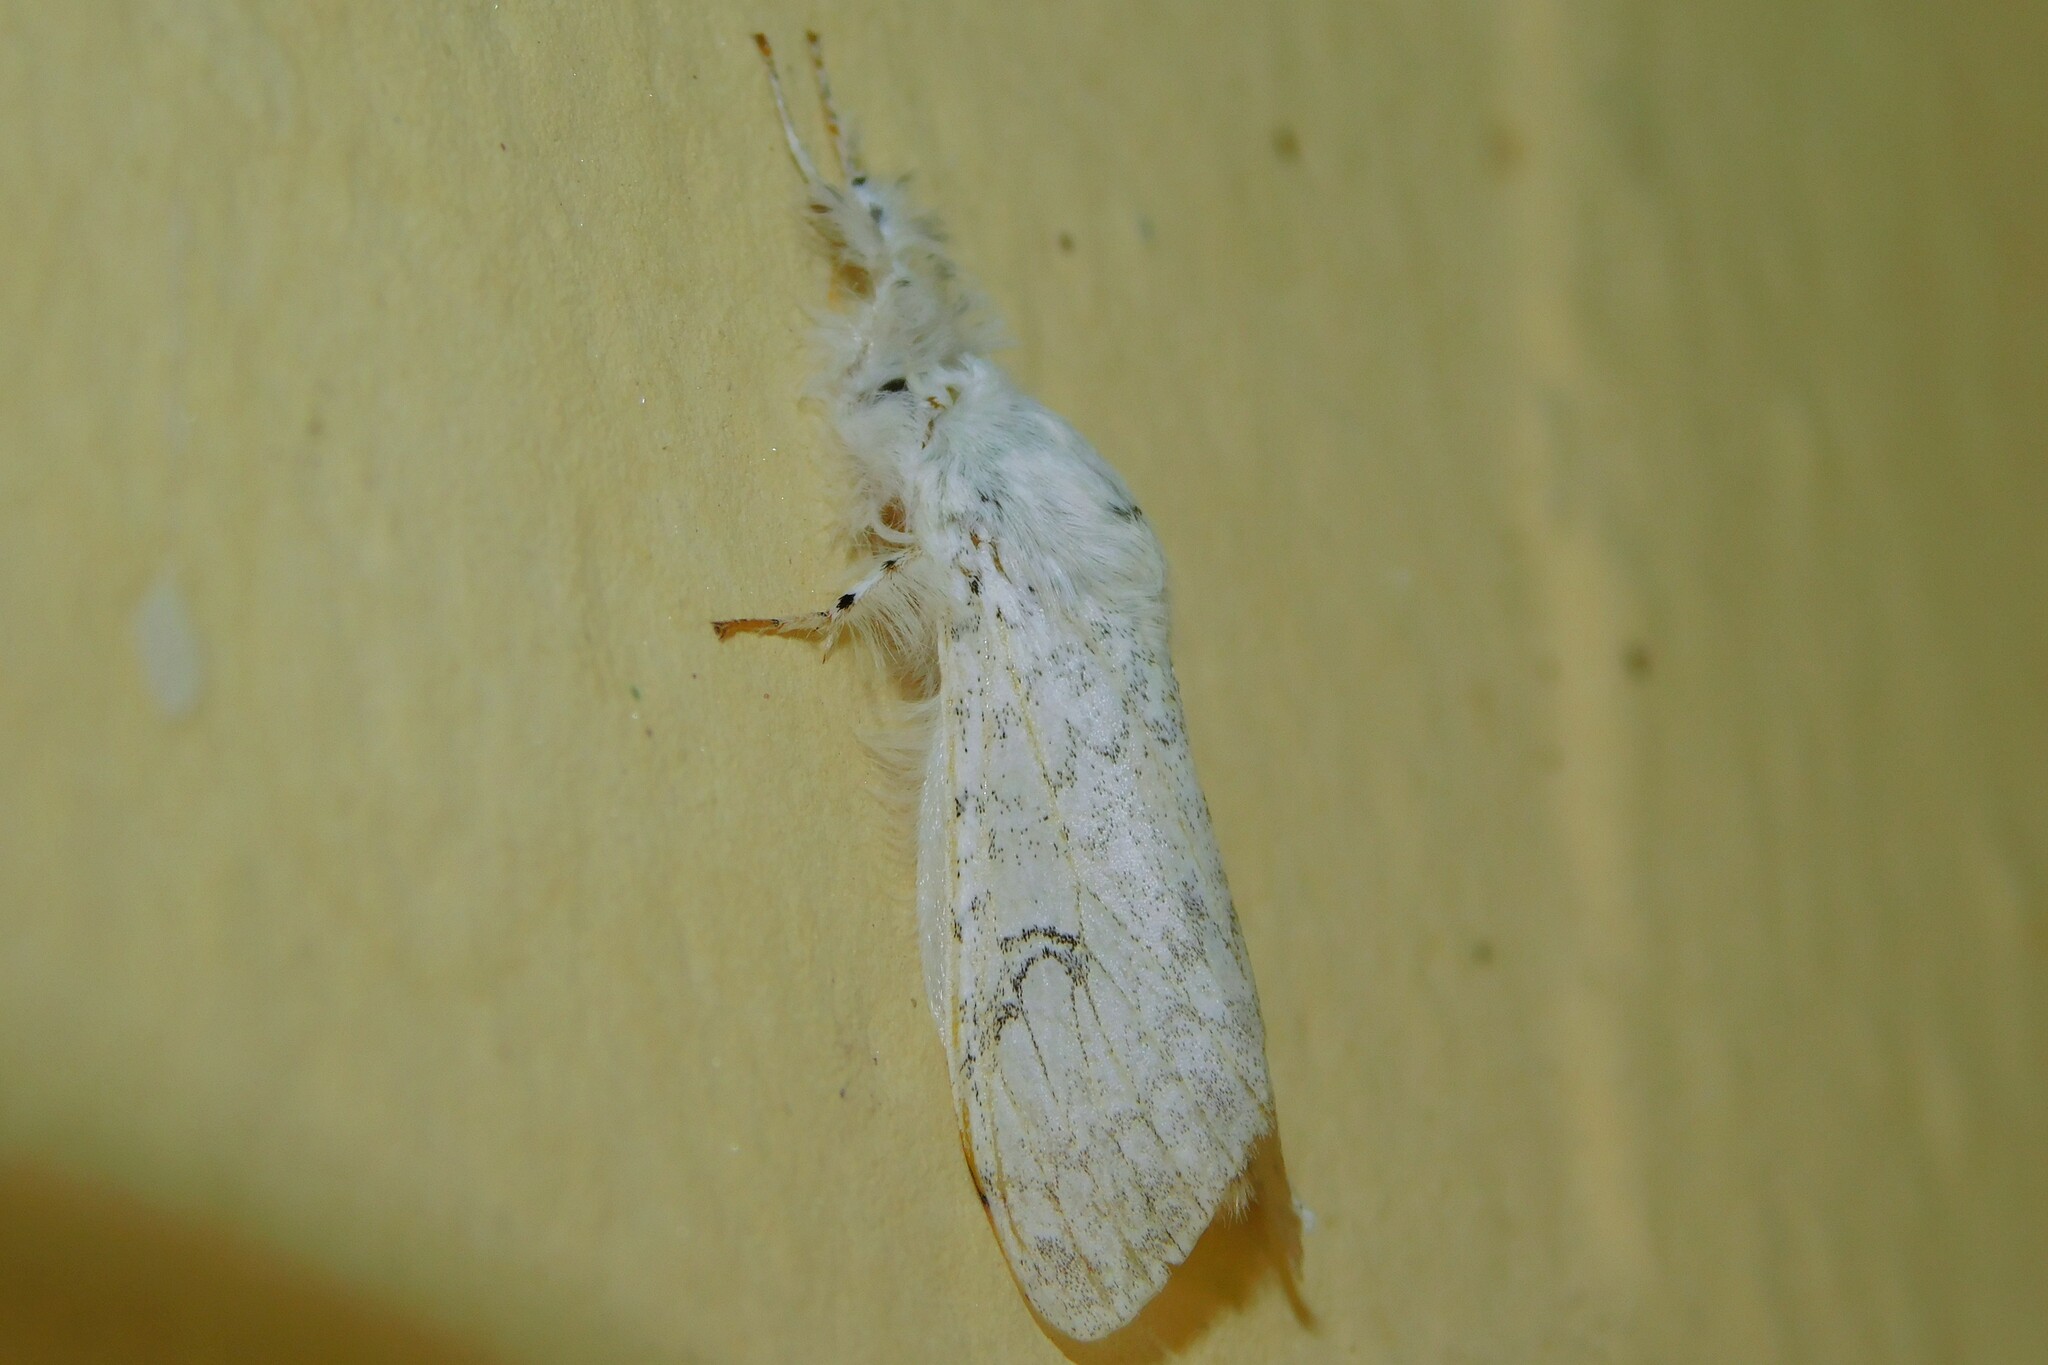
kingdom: Animalia
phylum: Arthropoda
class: Insecta
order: Lepidoptera
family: Erebidae
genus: Dasychira
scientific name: Dasychira georgiana
